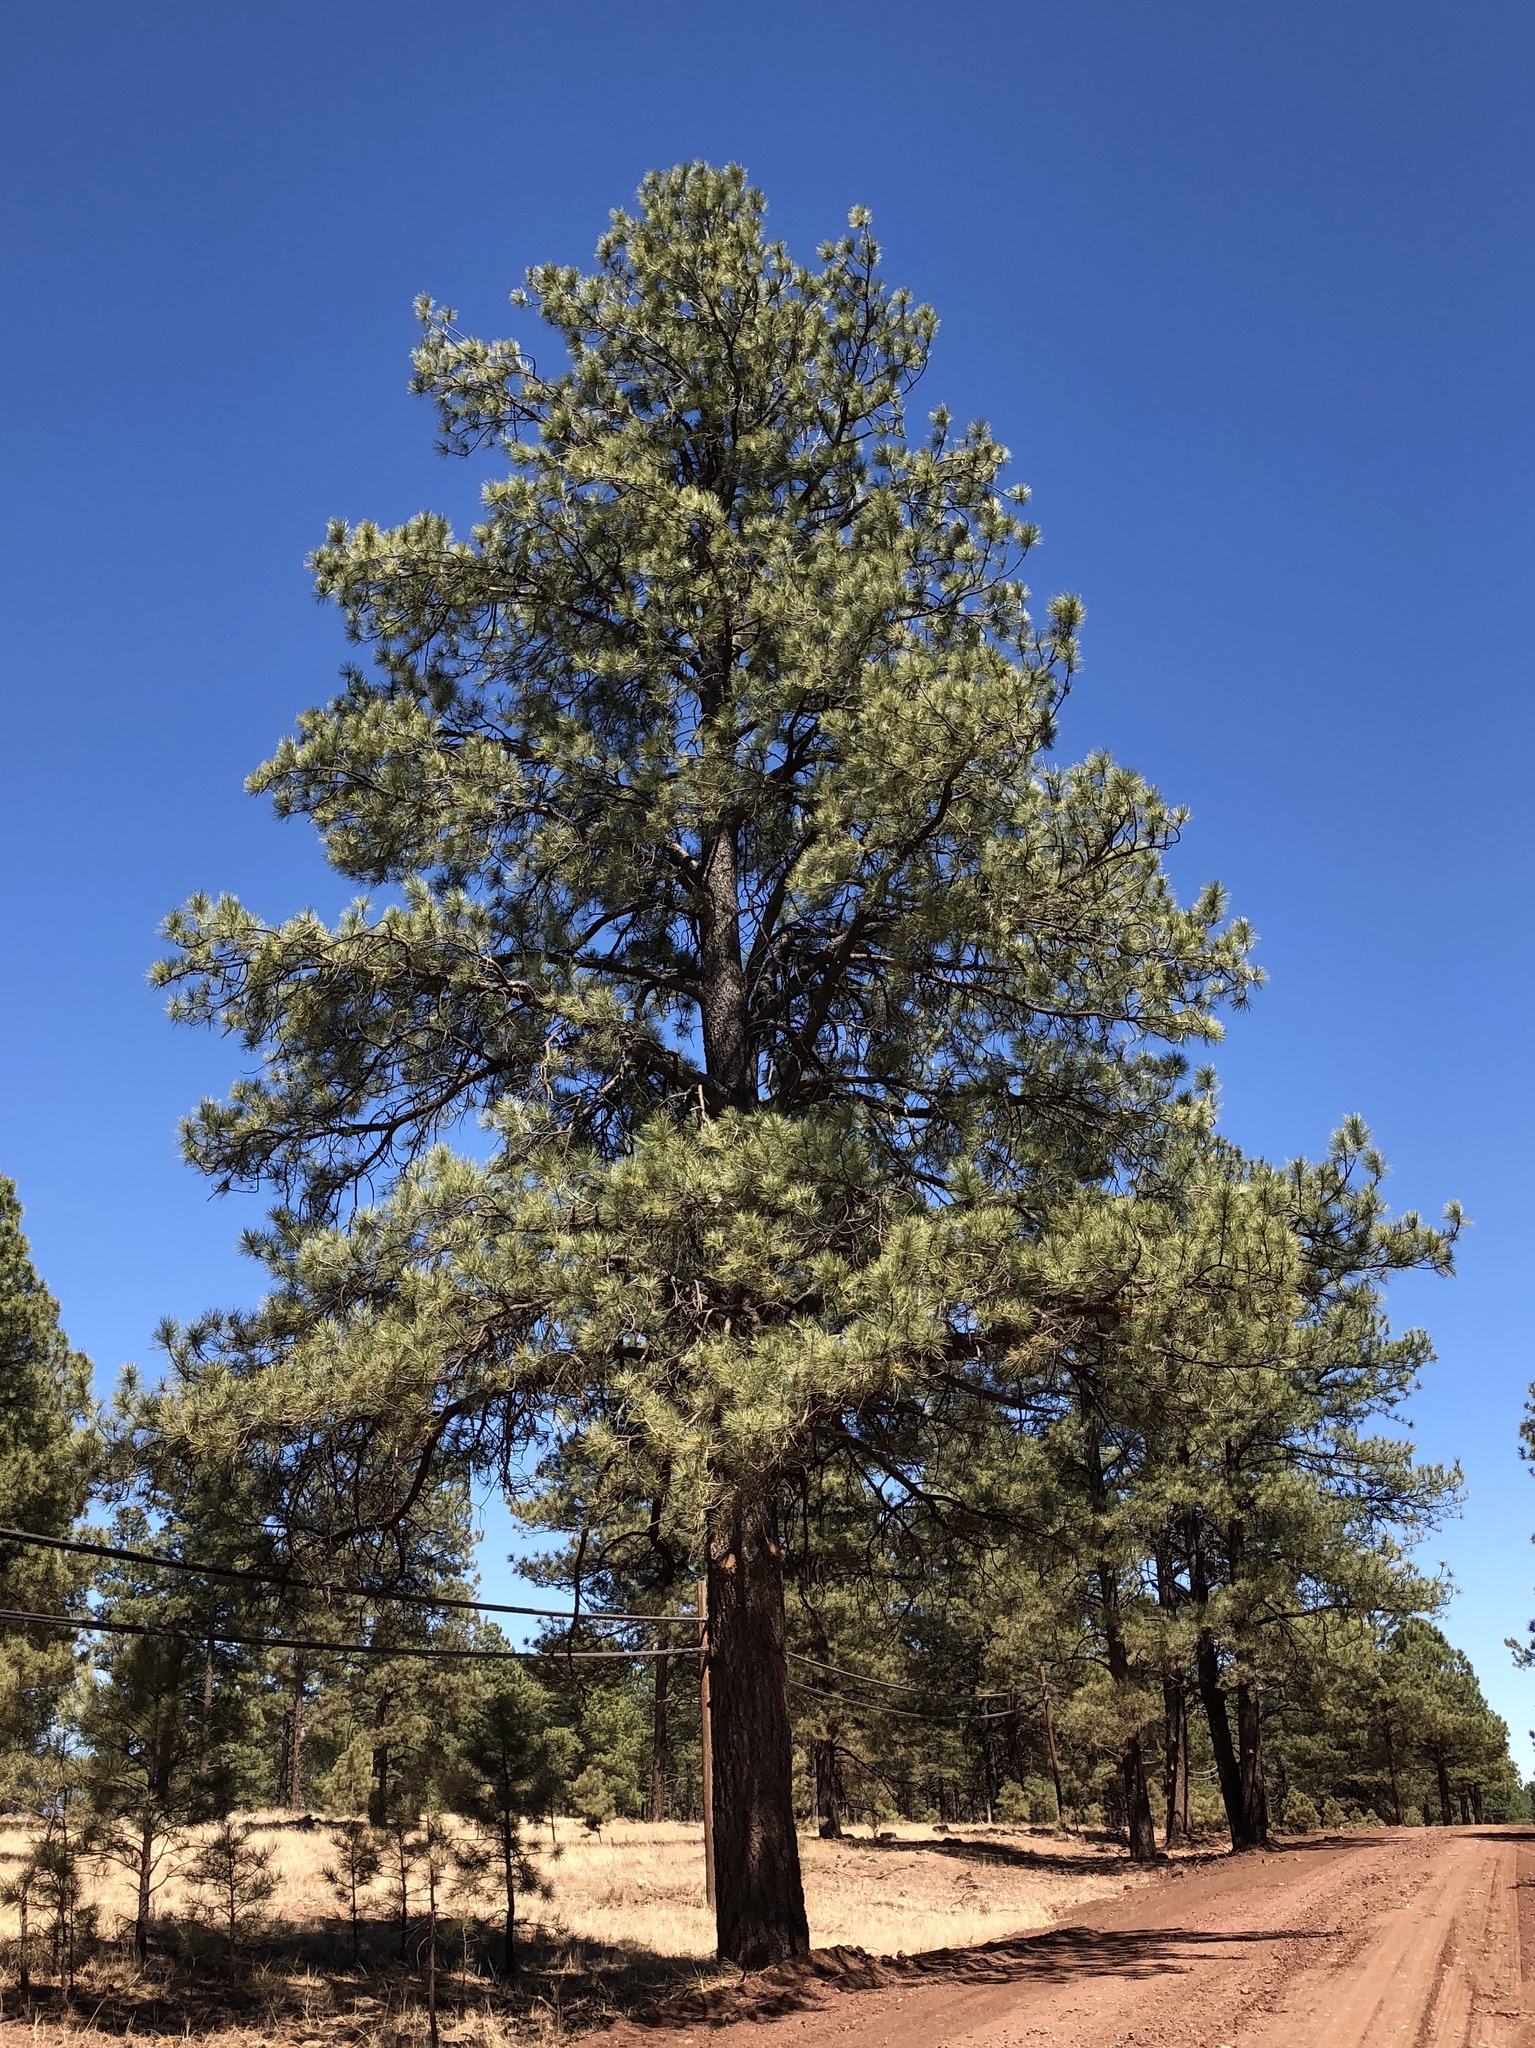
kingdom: Plantae
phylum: Tracheophyta
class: Pinopsida
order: Pinales
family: Pinaceae
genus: Pinus
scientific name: Pinus ponderosa
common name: Western yellow-pine
